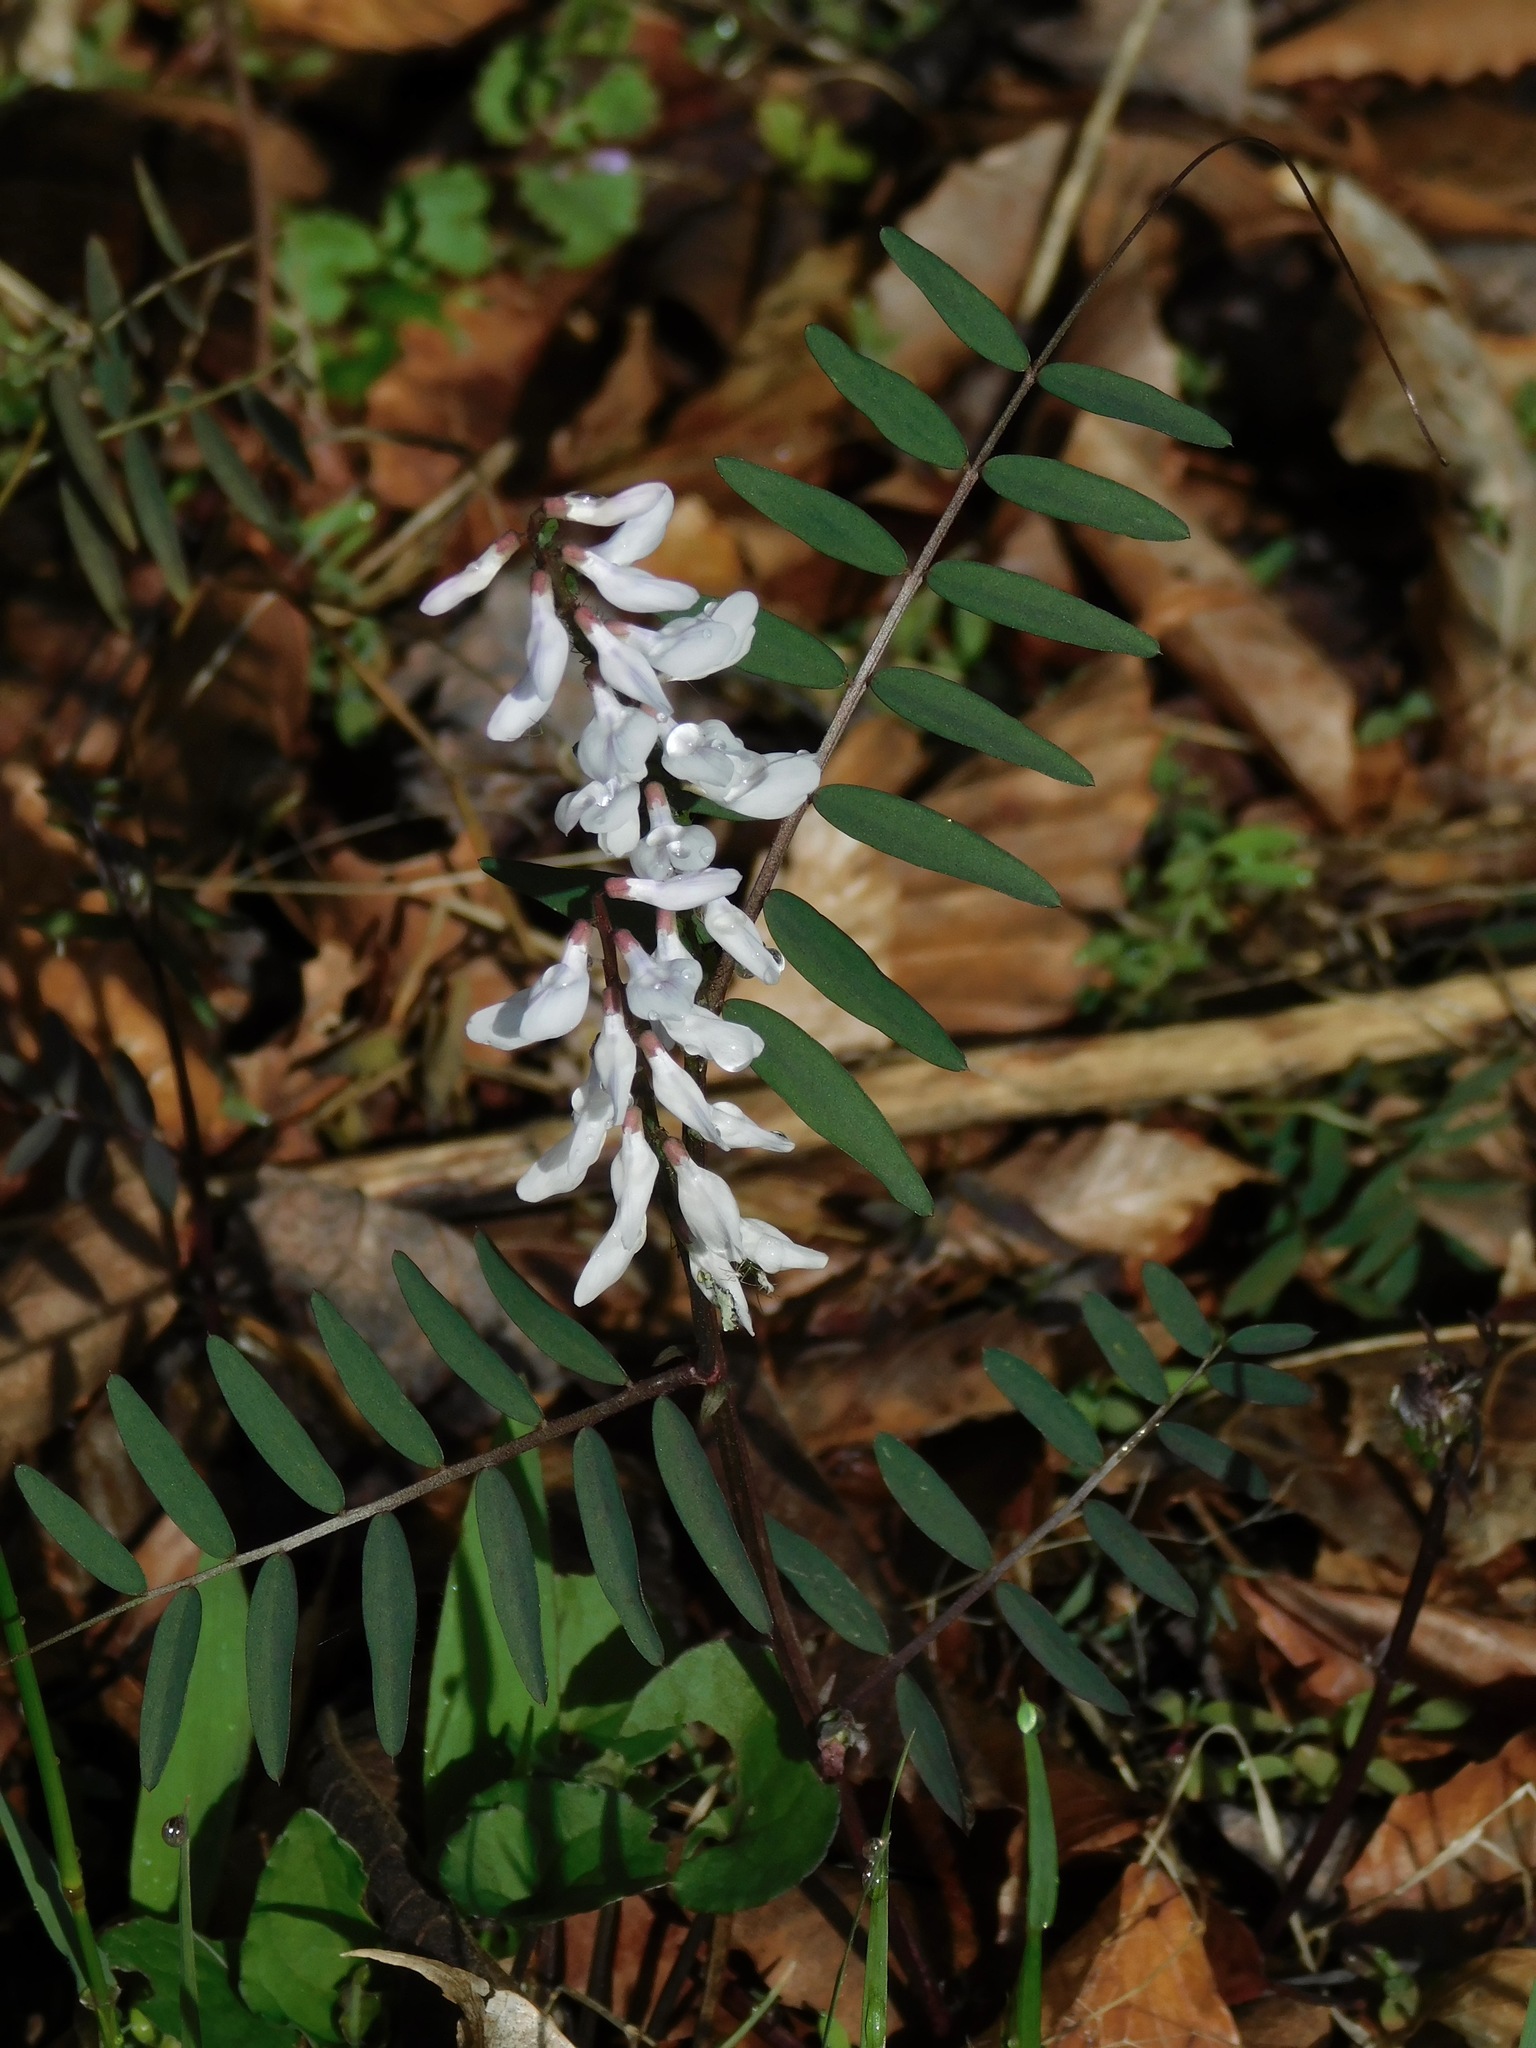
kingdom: Plantae
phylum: Tracheophyta
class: Magnoliopsida
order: Fabales
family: Fabaceae
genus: Vicia
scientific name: Vicia caroliniana
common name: Carolina vetch
